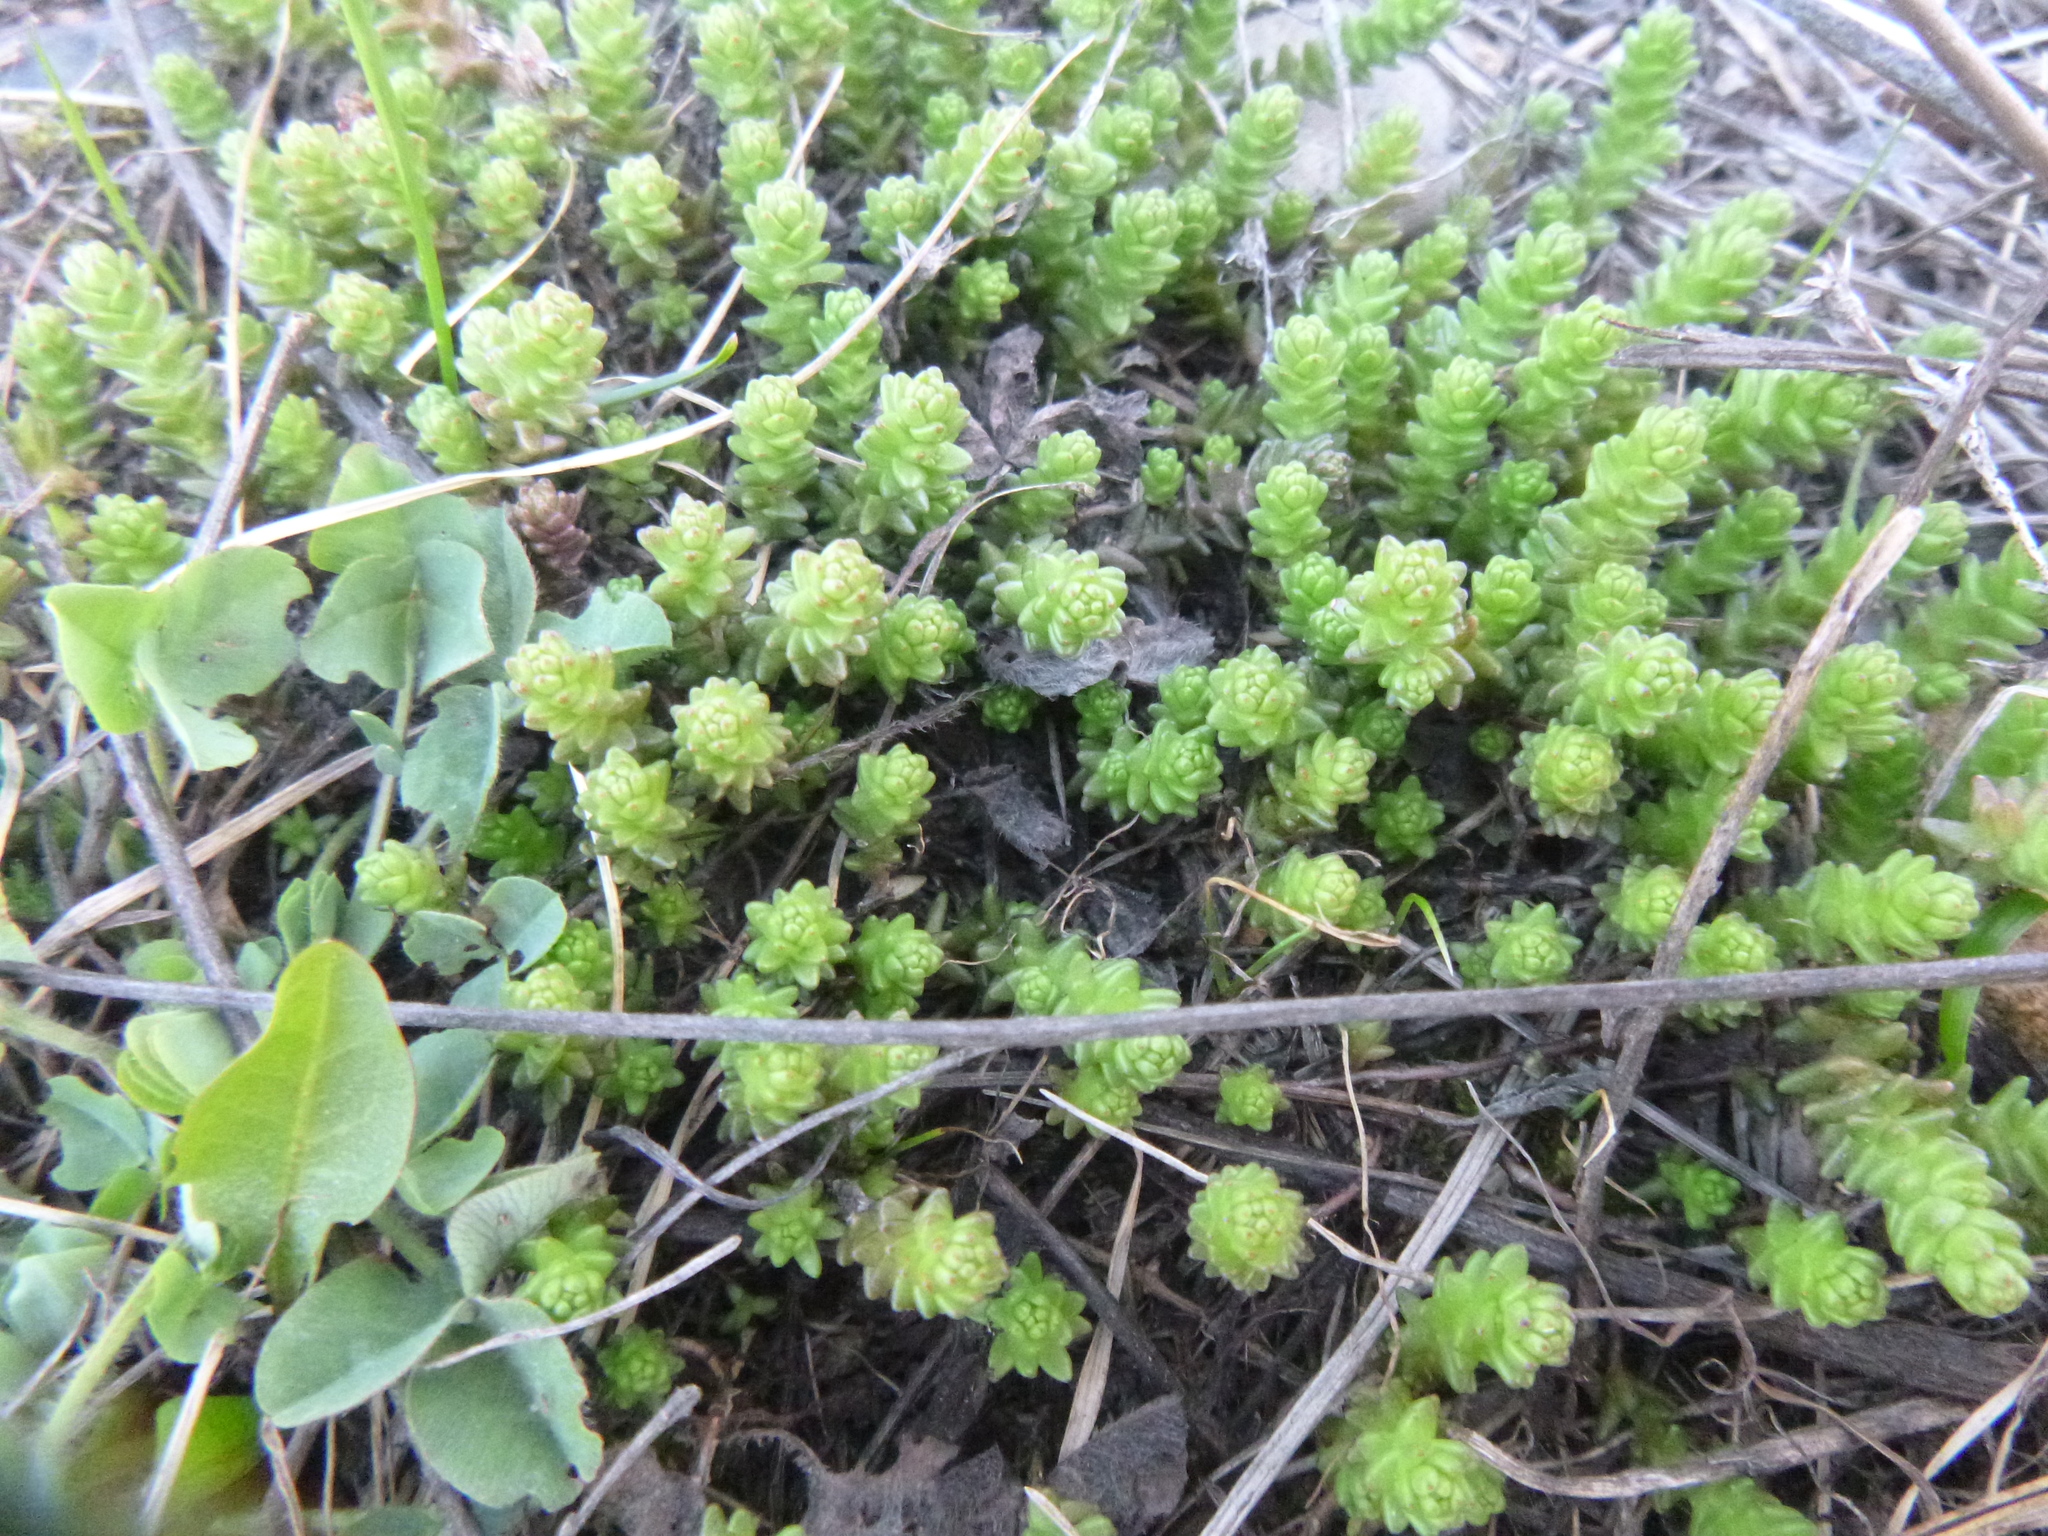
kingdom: Plantae
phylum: Tracheophyta
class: Magnoliopsida
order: Saxifragales
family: Crassulaceae
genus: Sedum
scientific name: Sedum acre
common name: Biting stonecrop
